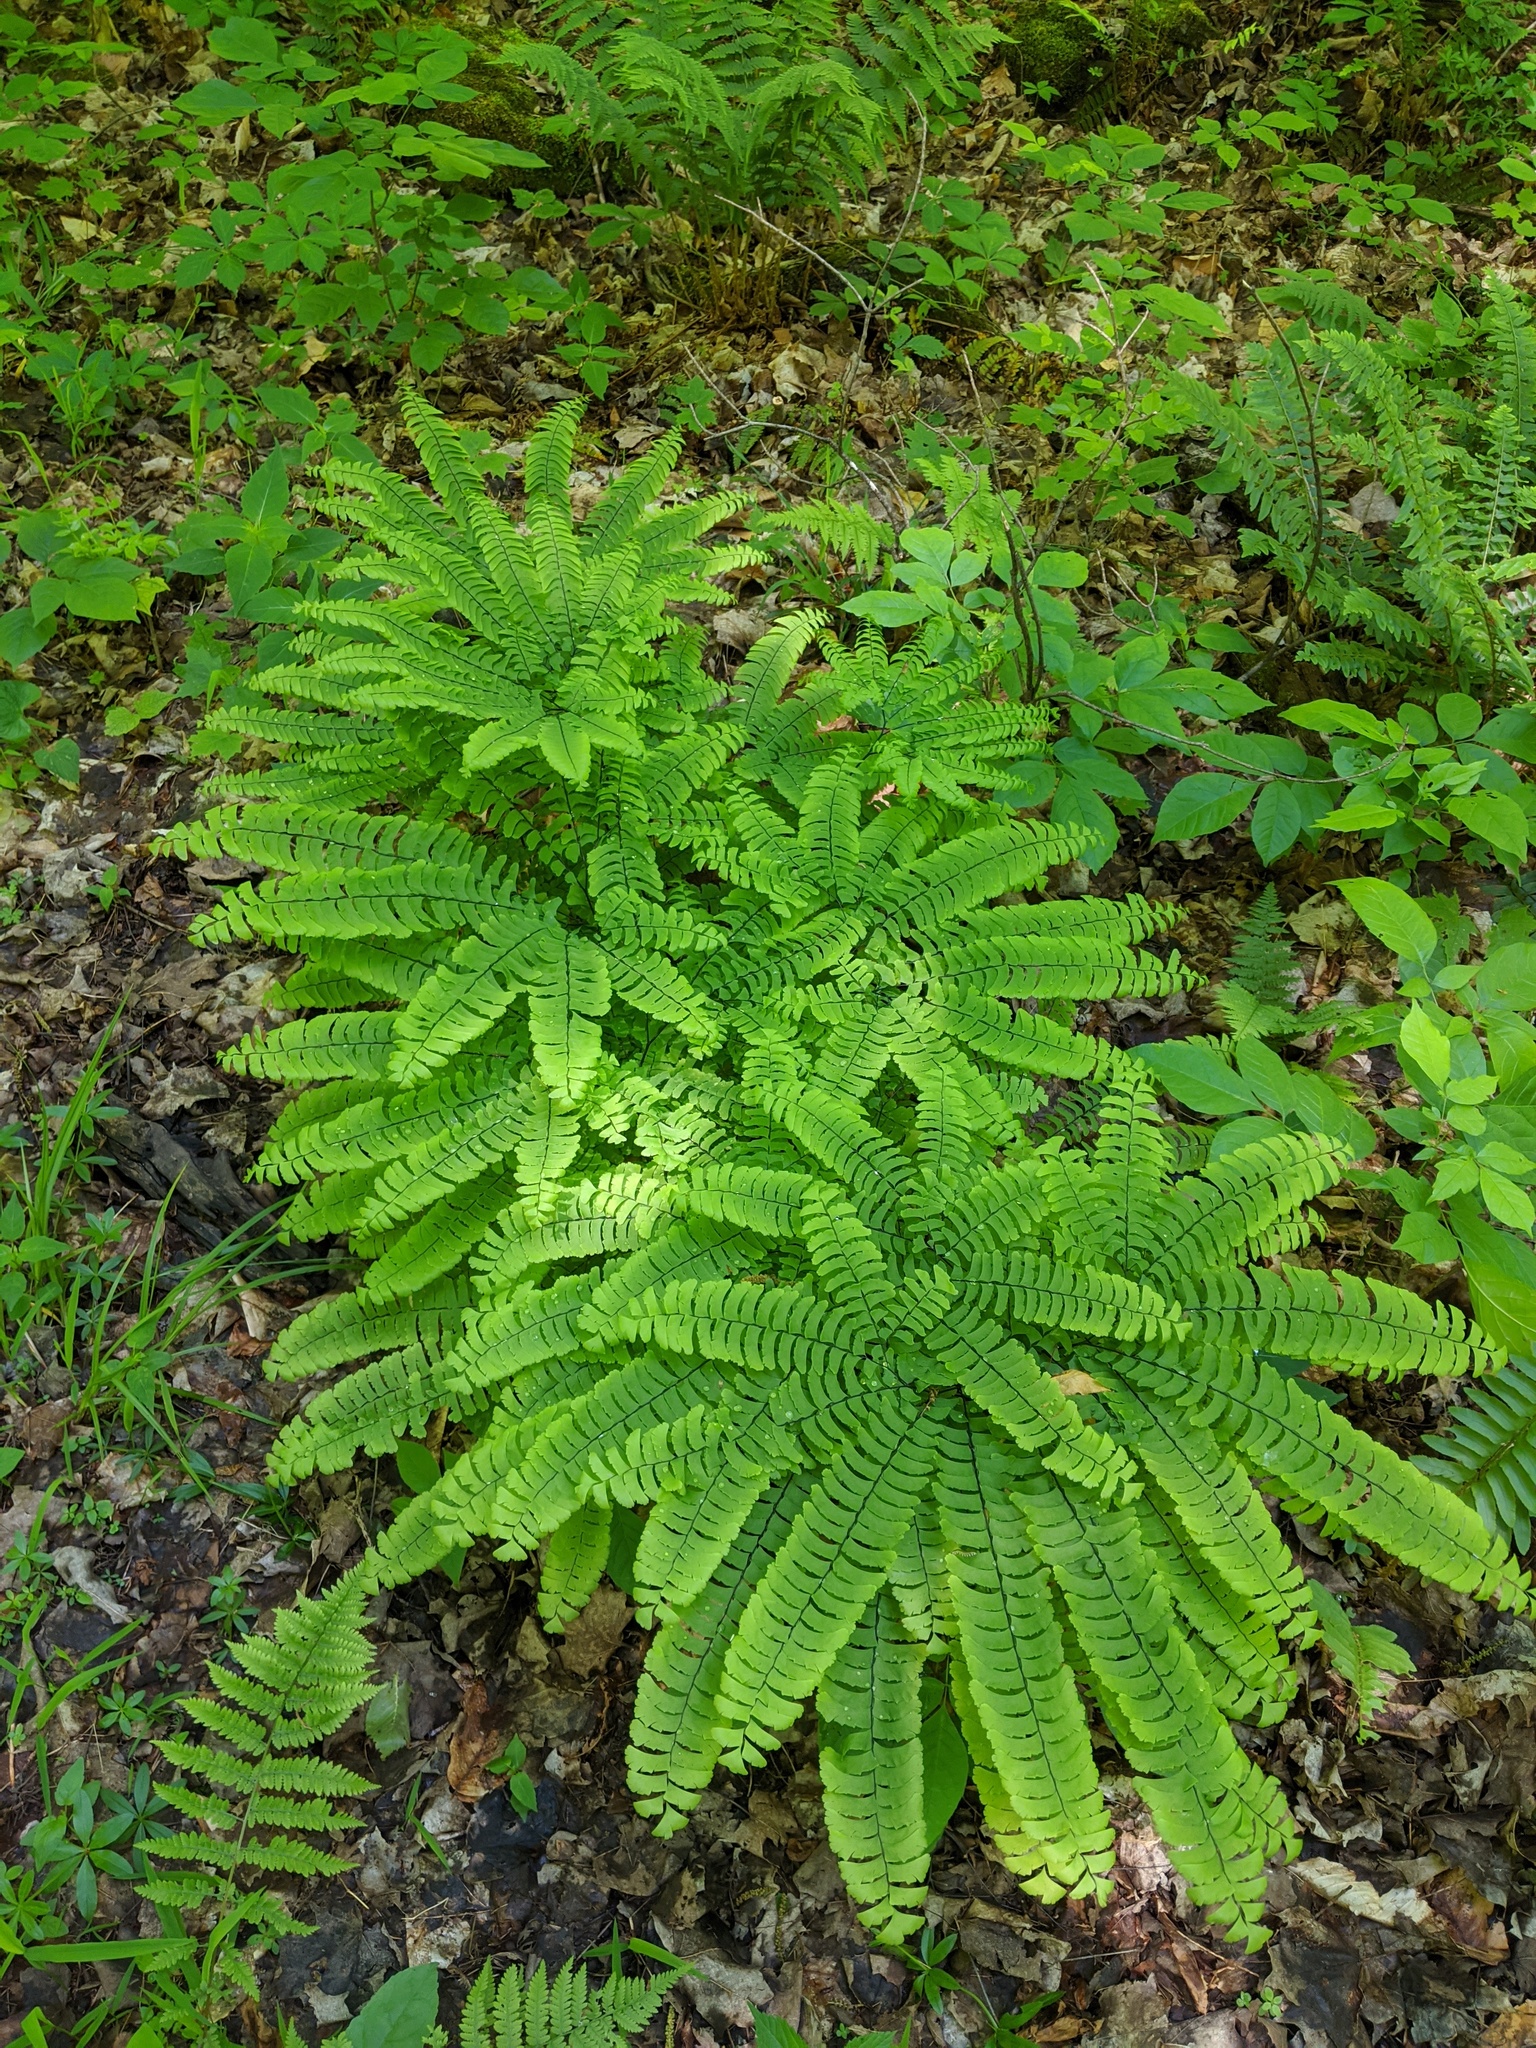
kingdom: Plantae
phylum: Tracheophyta
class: Polypodiopsida
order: Polypodiales
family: Pteridaceae
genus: Adiantum
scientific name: Adiantum pedatum
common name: Five-finger fern
